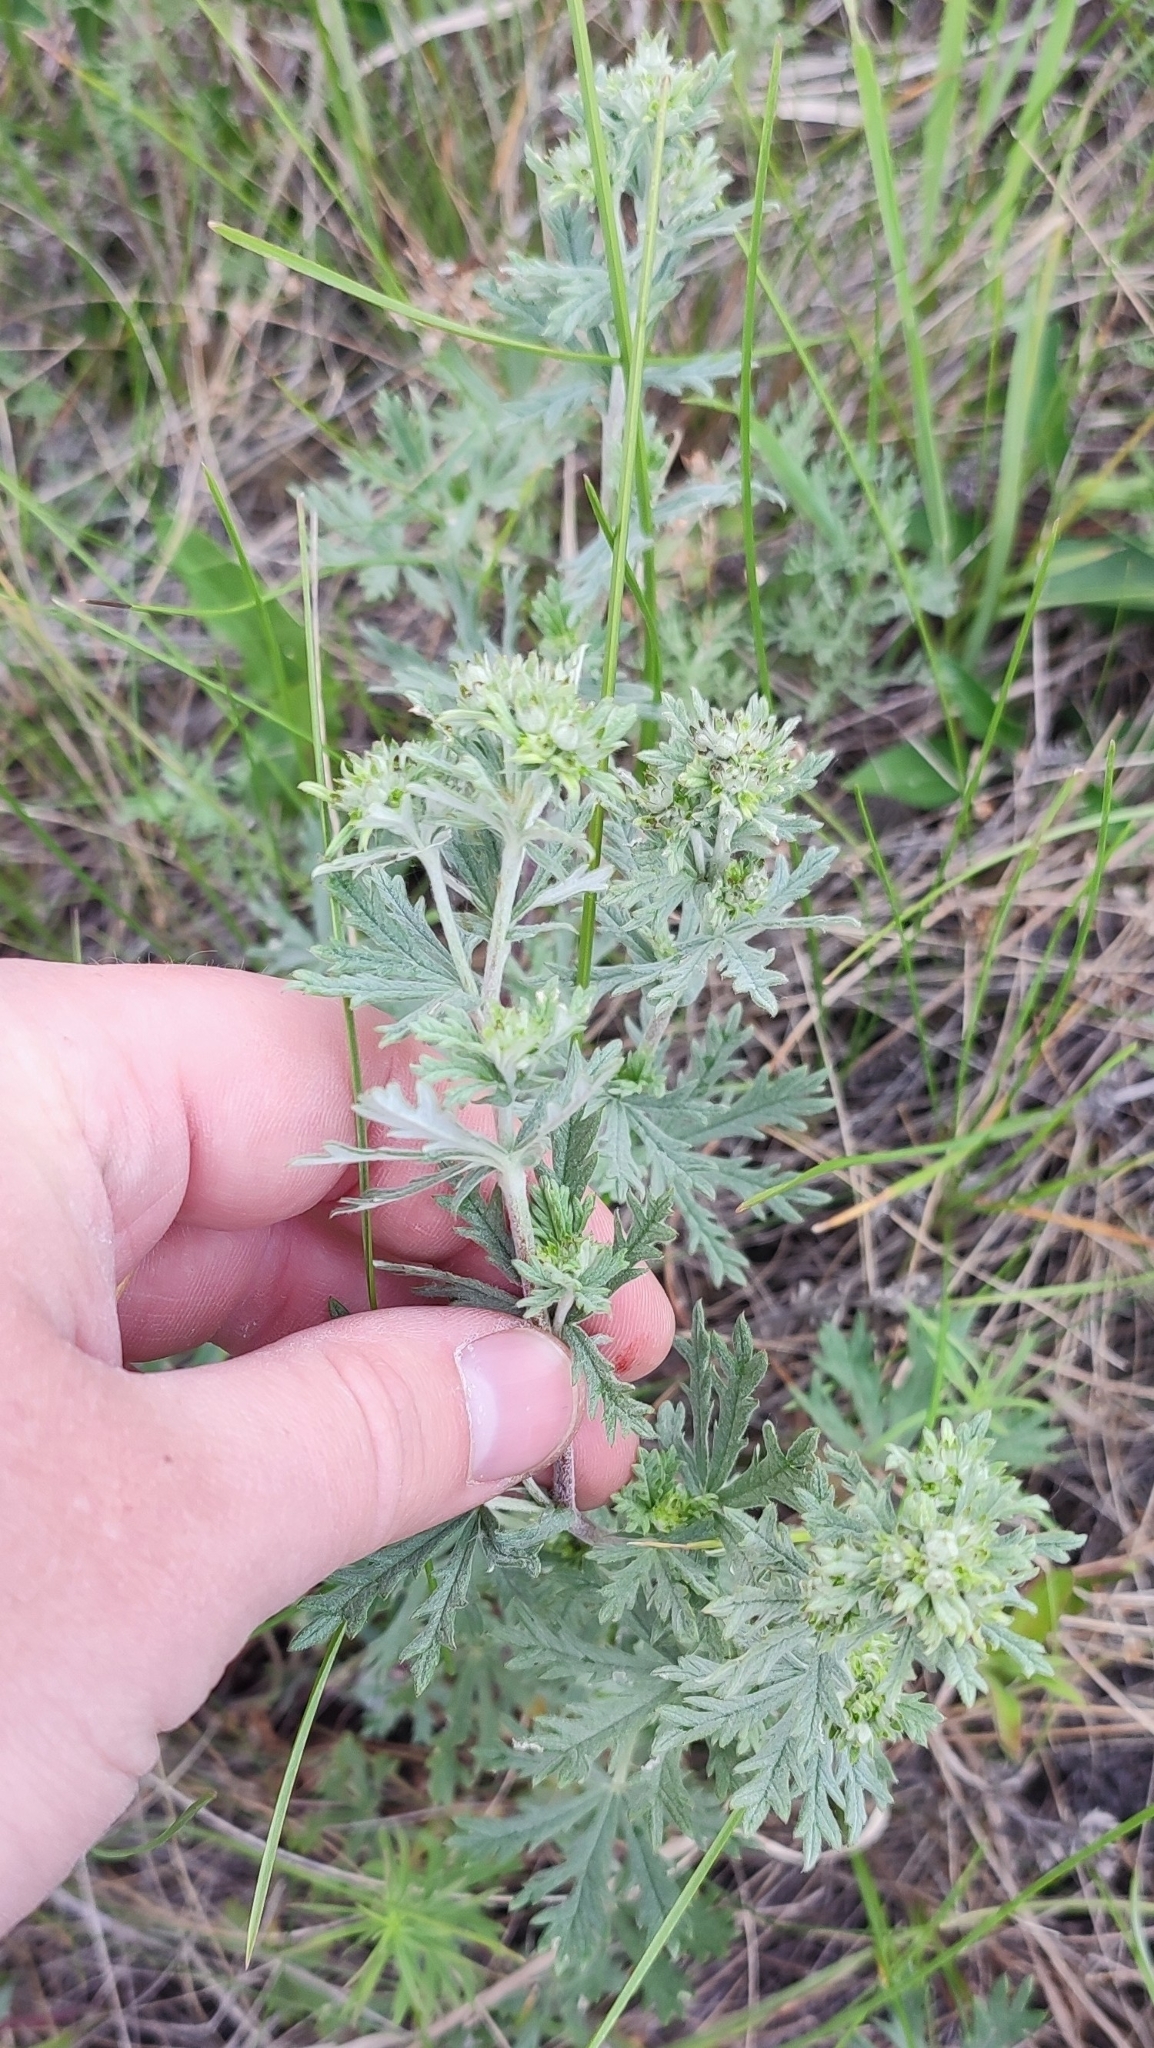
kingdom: Plantae
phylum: Tracheophyta
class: Magnoliopsida
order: Rosales
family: Rosaceae
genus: Potentilla
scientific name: Potentilla argentea
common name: Hoary cinquefoil
